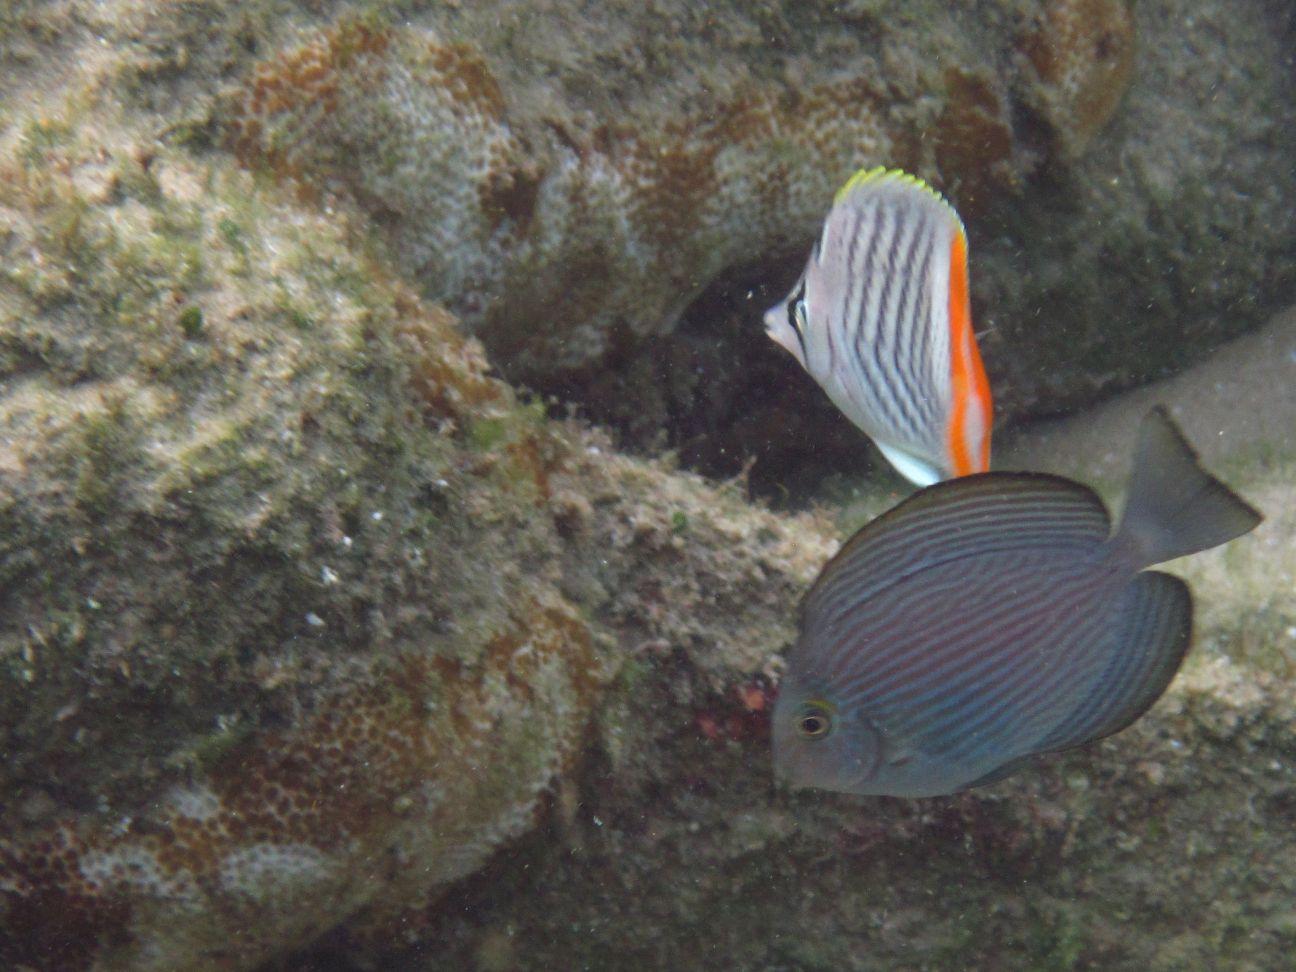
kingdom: Animalia
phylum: Chordata
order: Perciformes
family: Acanthuridae
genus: Acanthurus
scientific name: Acanthurus mata
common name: Bleeker's surgeonfish
